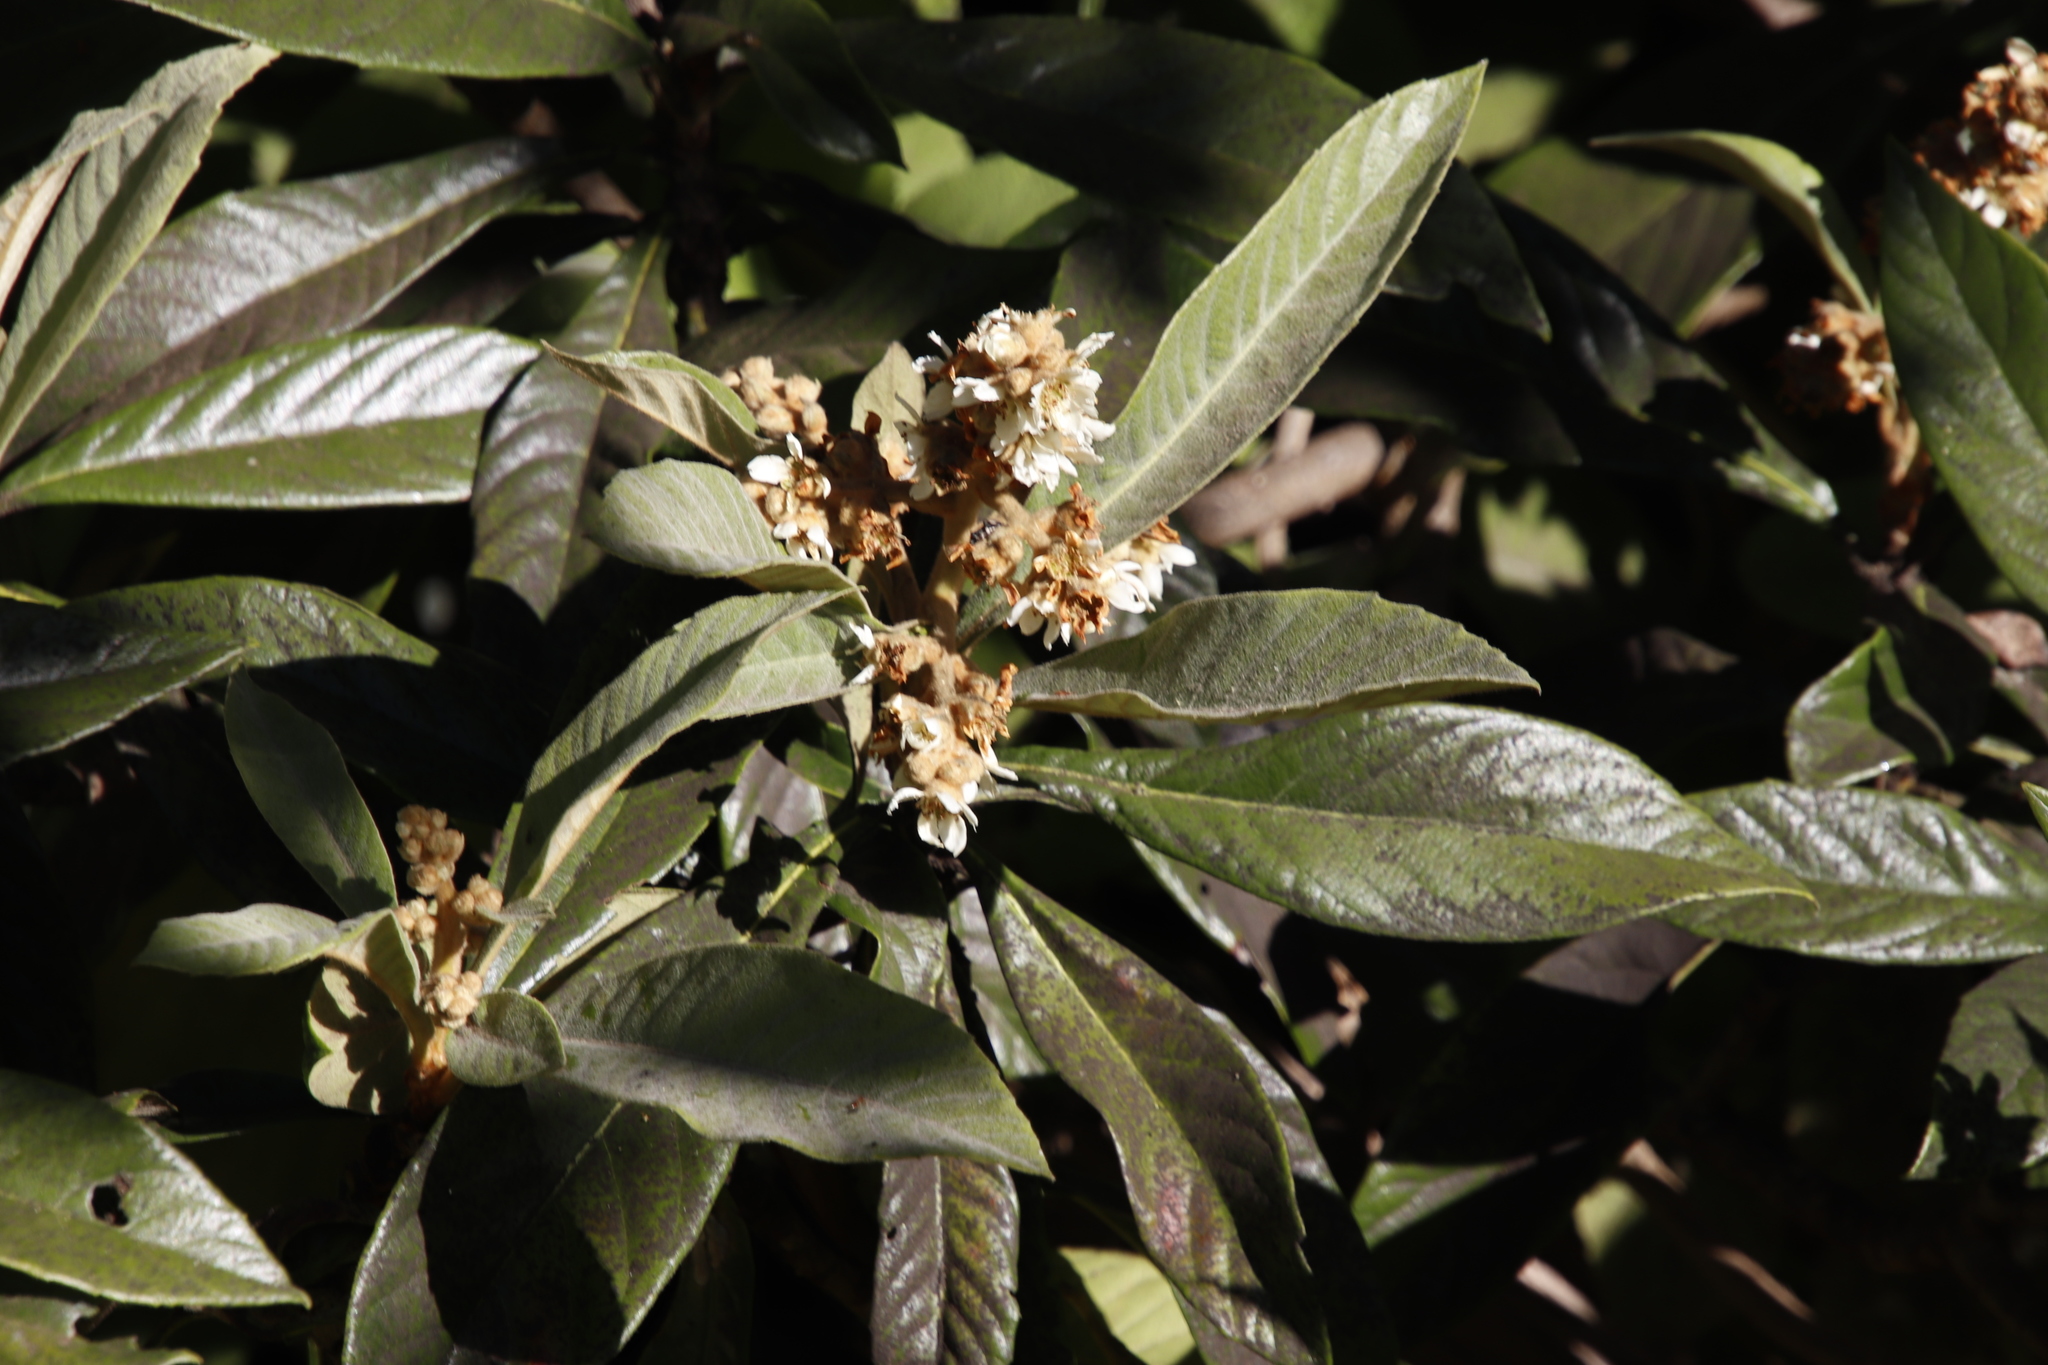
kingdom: Plantae
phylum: Tracheophyta
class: Magnoliopsida
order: Rosales
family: Rosaceae
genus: Rhaphiolepis
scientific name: Rhaphiolepis bibas
